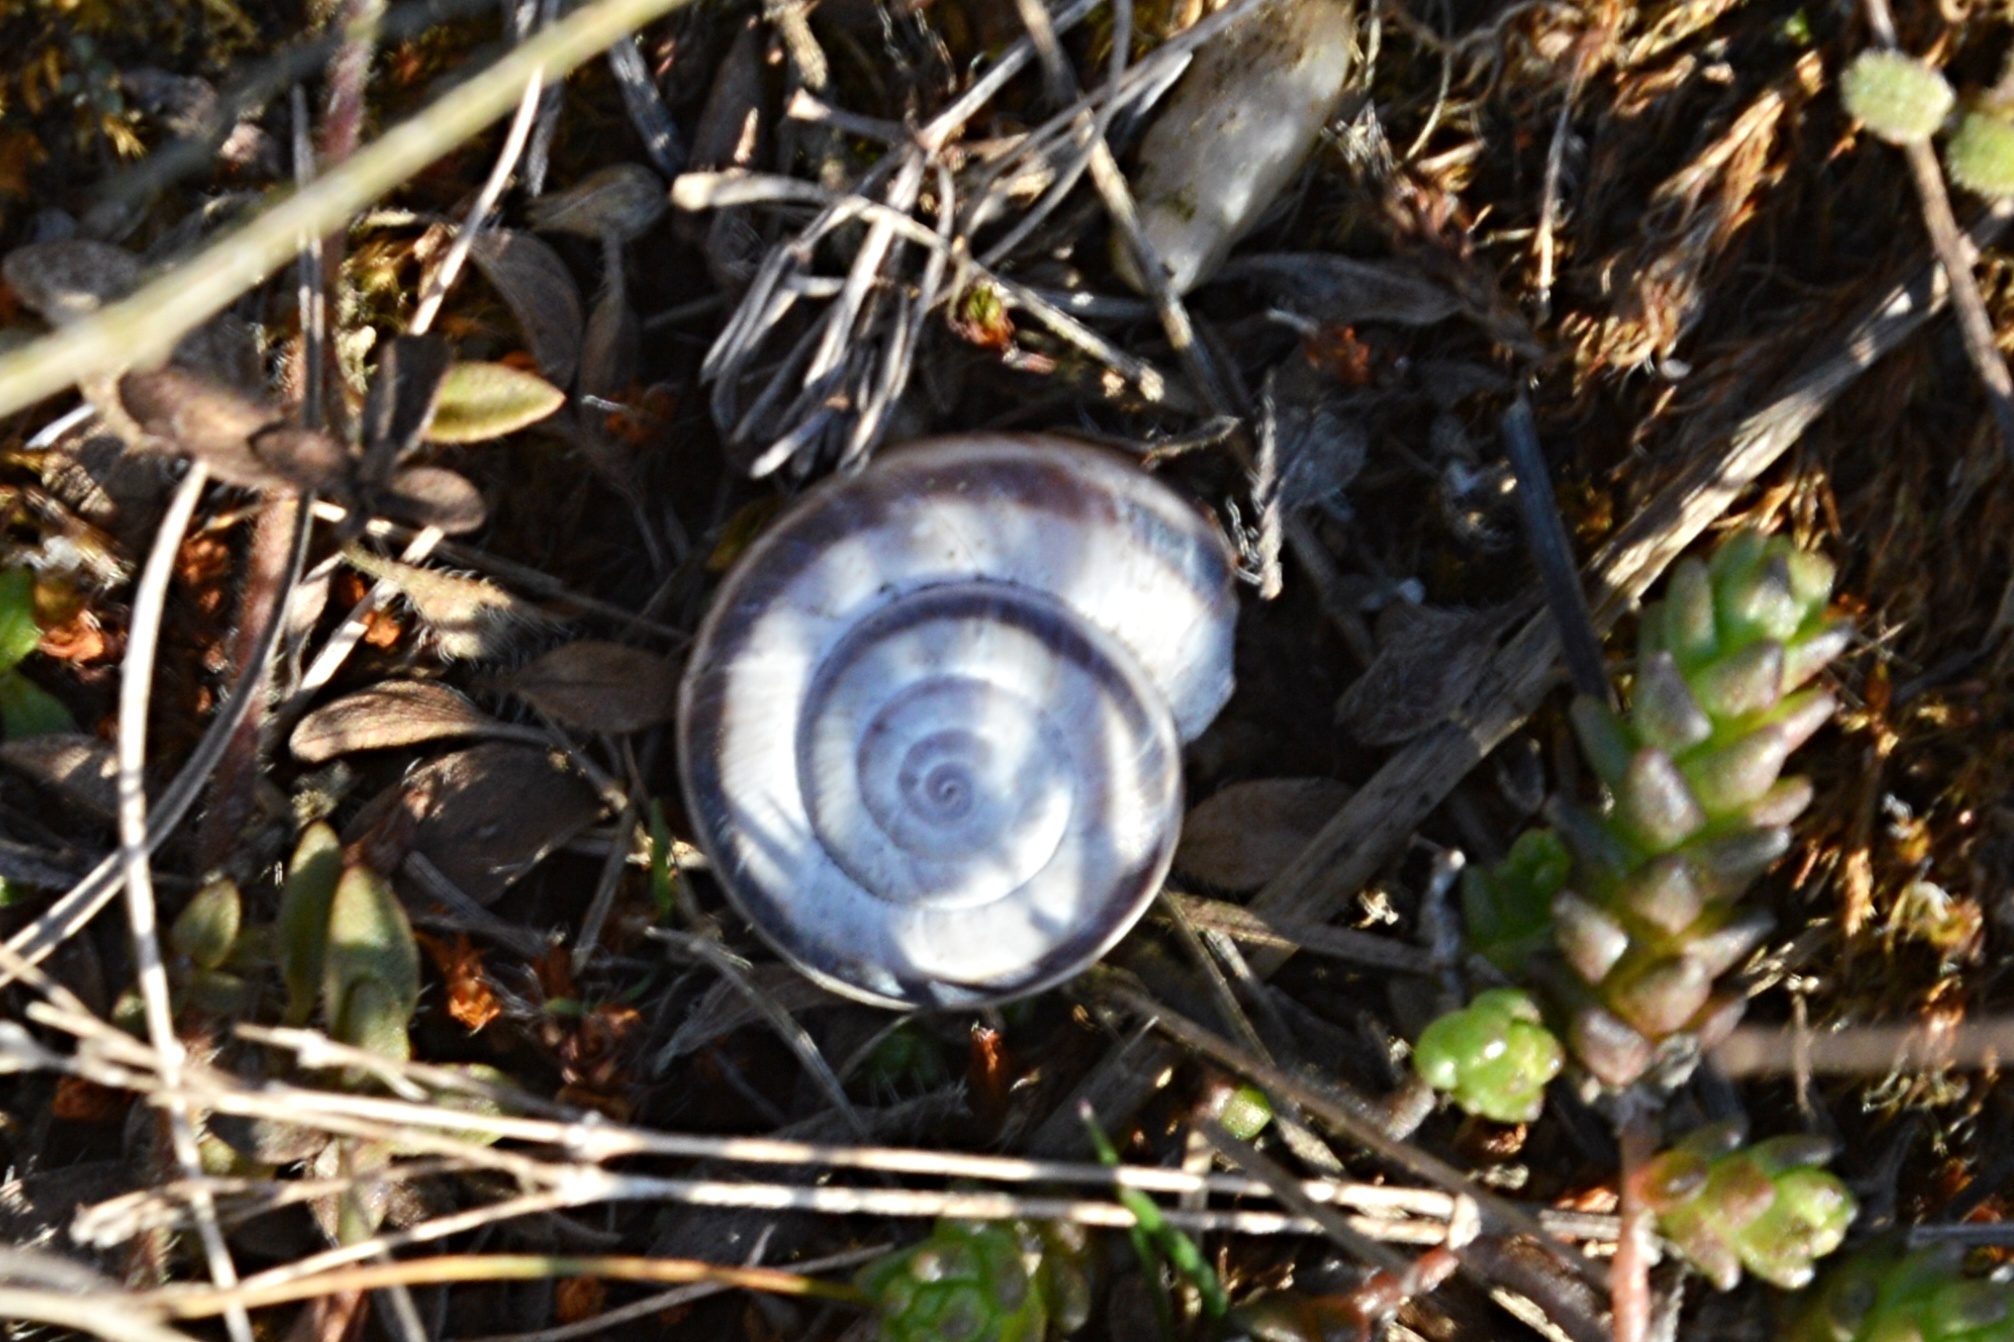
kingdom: Animalia
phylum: Mollusca
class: Gastropoda
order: Stylommatophora
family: Geomitridae
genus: Xerolenta
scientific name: Xerolenta obvia
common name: White heath snail
